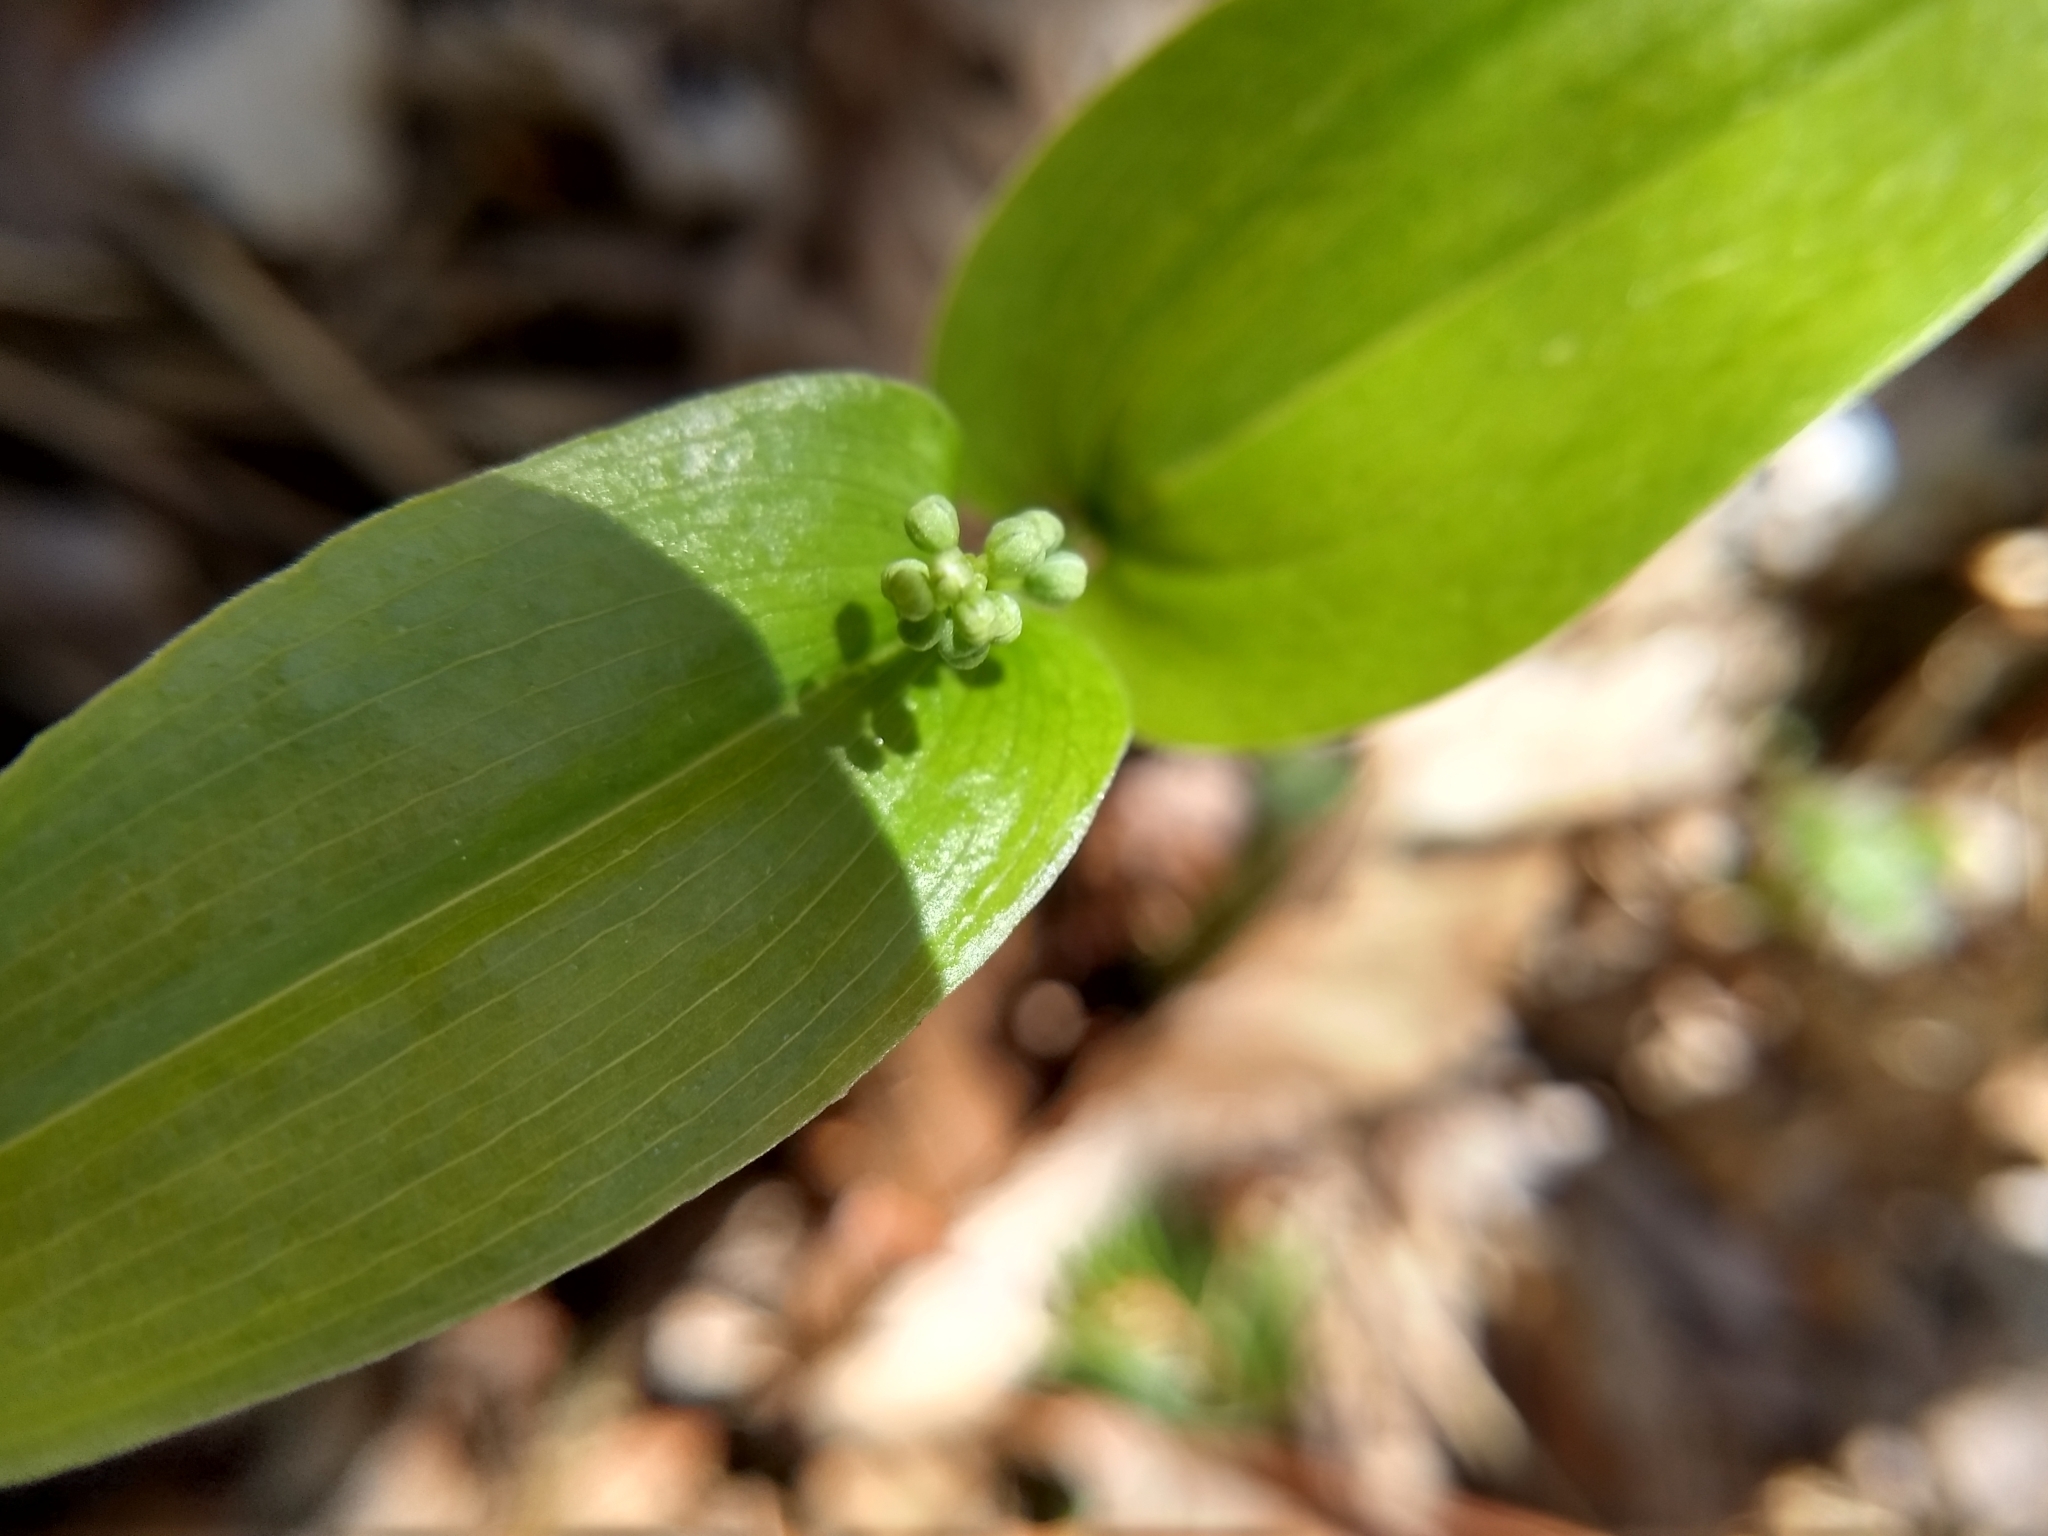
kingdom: Plantae
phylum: Tracheophyta
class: Liliopsida
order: Asparagales
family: Asparagaceae
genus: Maianthemum
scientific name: Maianthemum canadense
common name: False lily-of-the-valley
